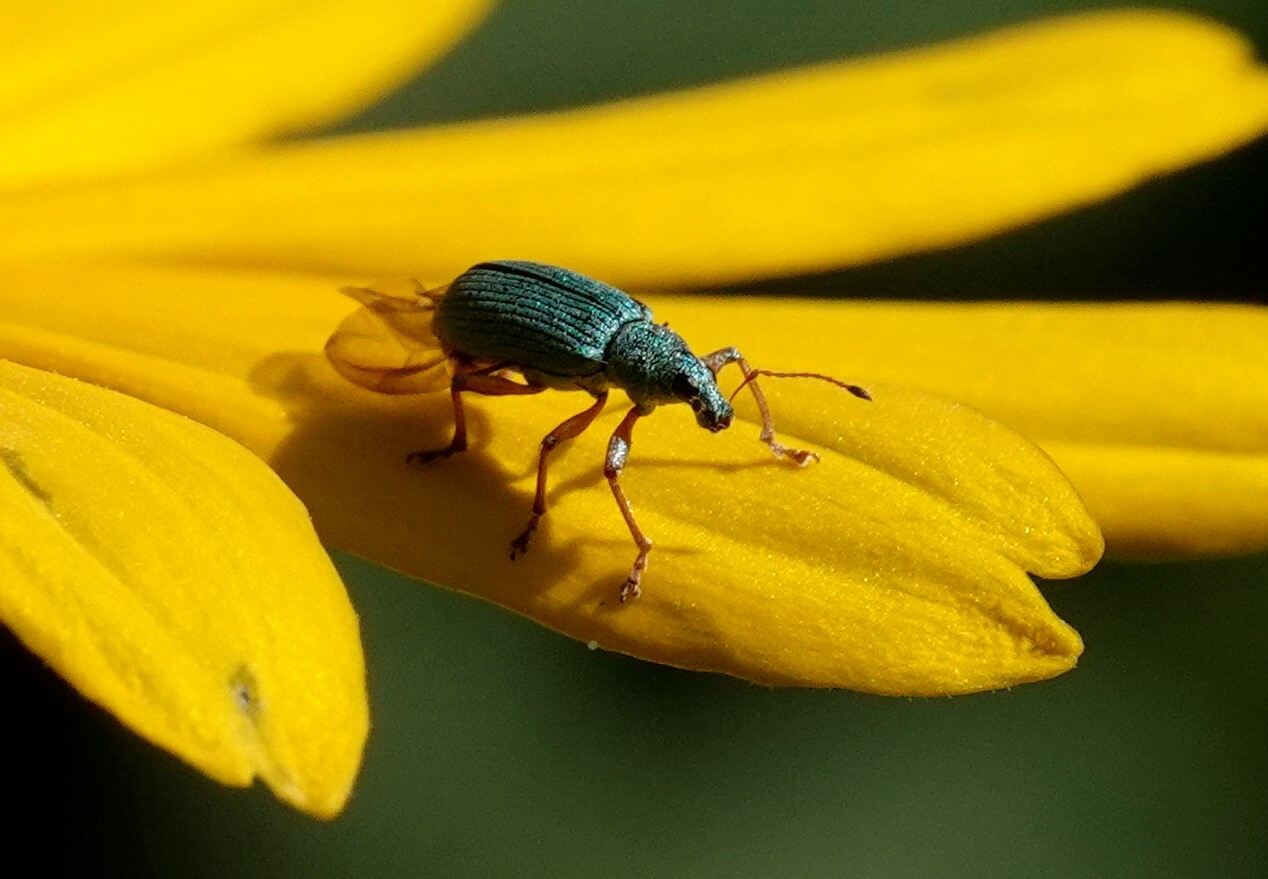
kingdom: Animalia
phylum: Arthropoda
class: Insecta
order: Coleoptera
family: Curculionidae
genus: Polydrusus
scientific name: Polydrusus formosus
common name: Weevil
